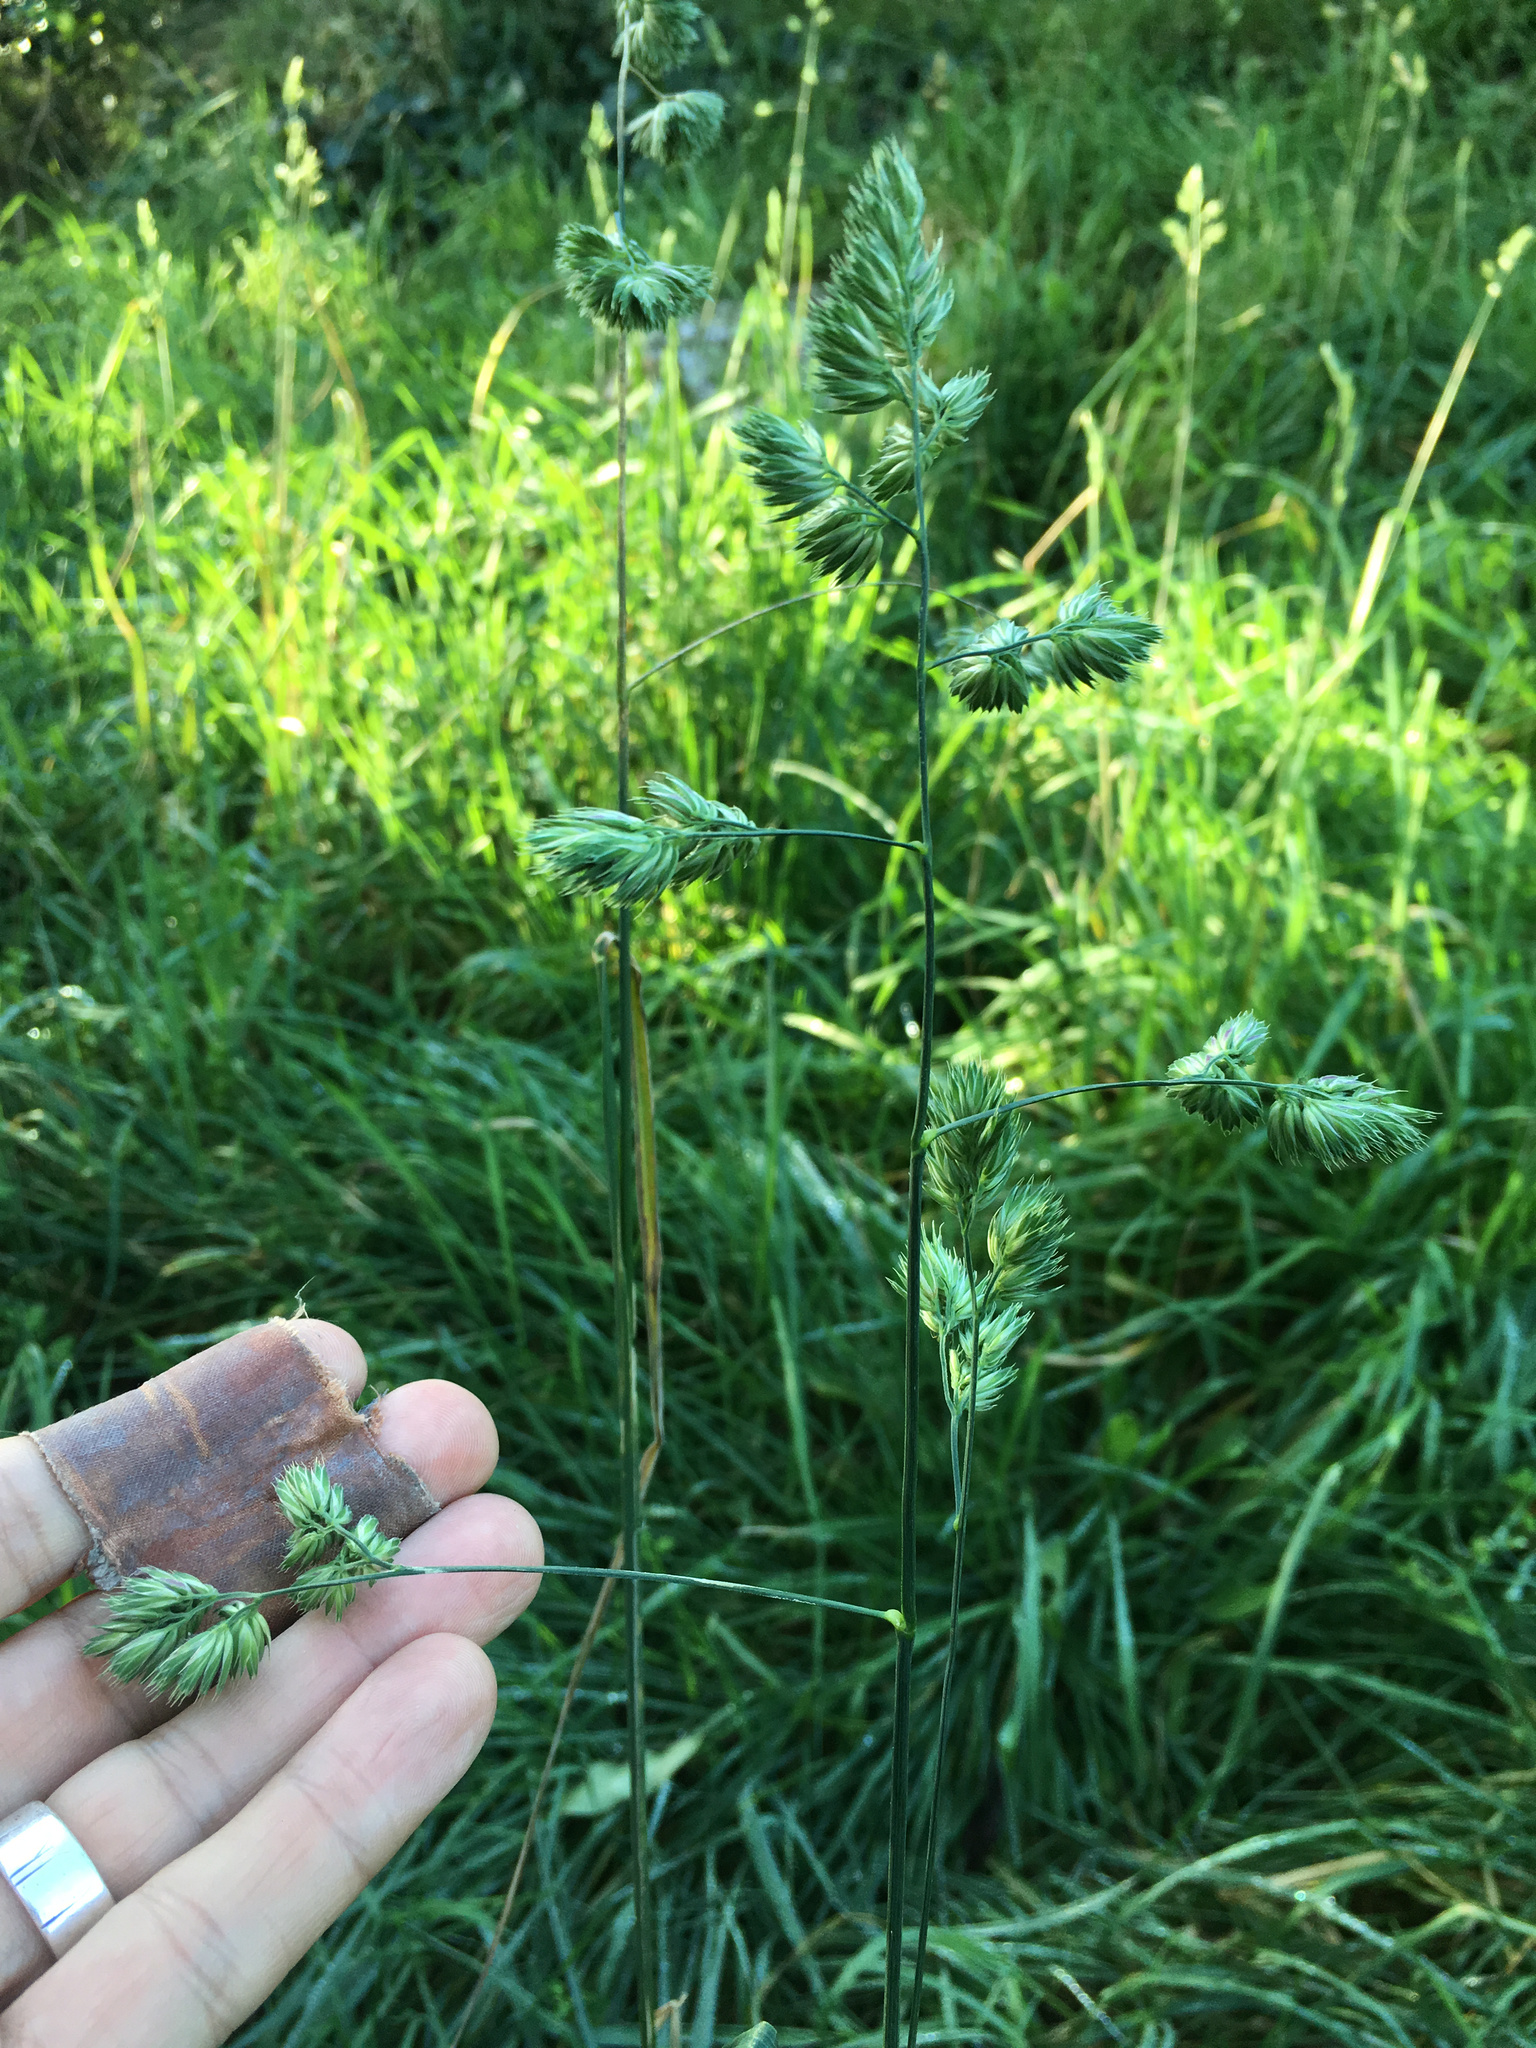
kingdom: Plantae
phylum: Tracheophyta
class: Liliopsida
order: Poales
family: Poaceae
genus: Dactylis
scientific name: Dactylis glomerata
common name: Orchardgrass
